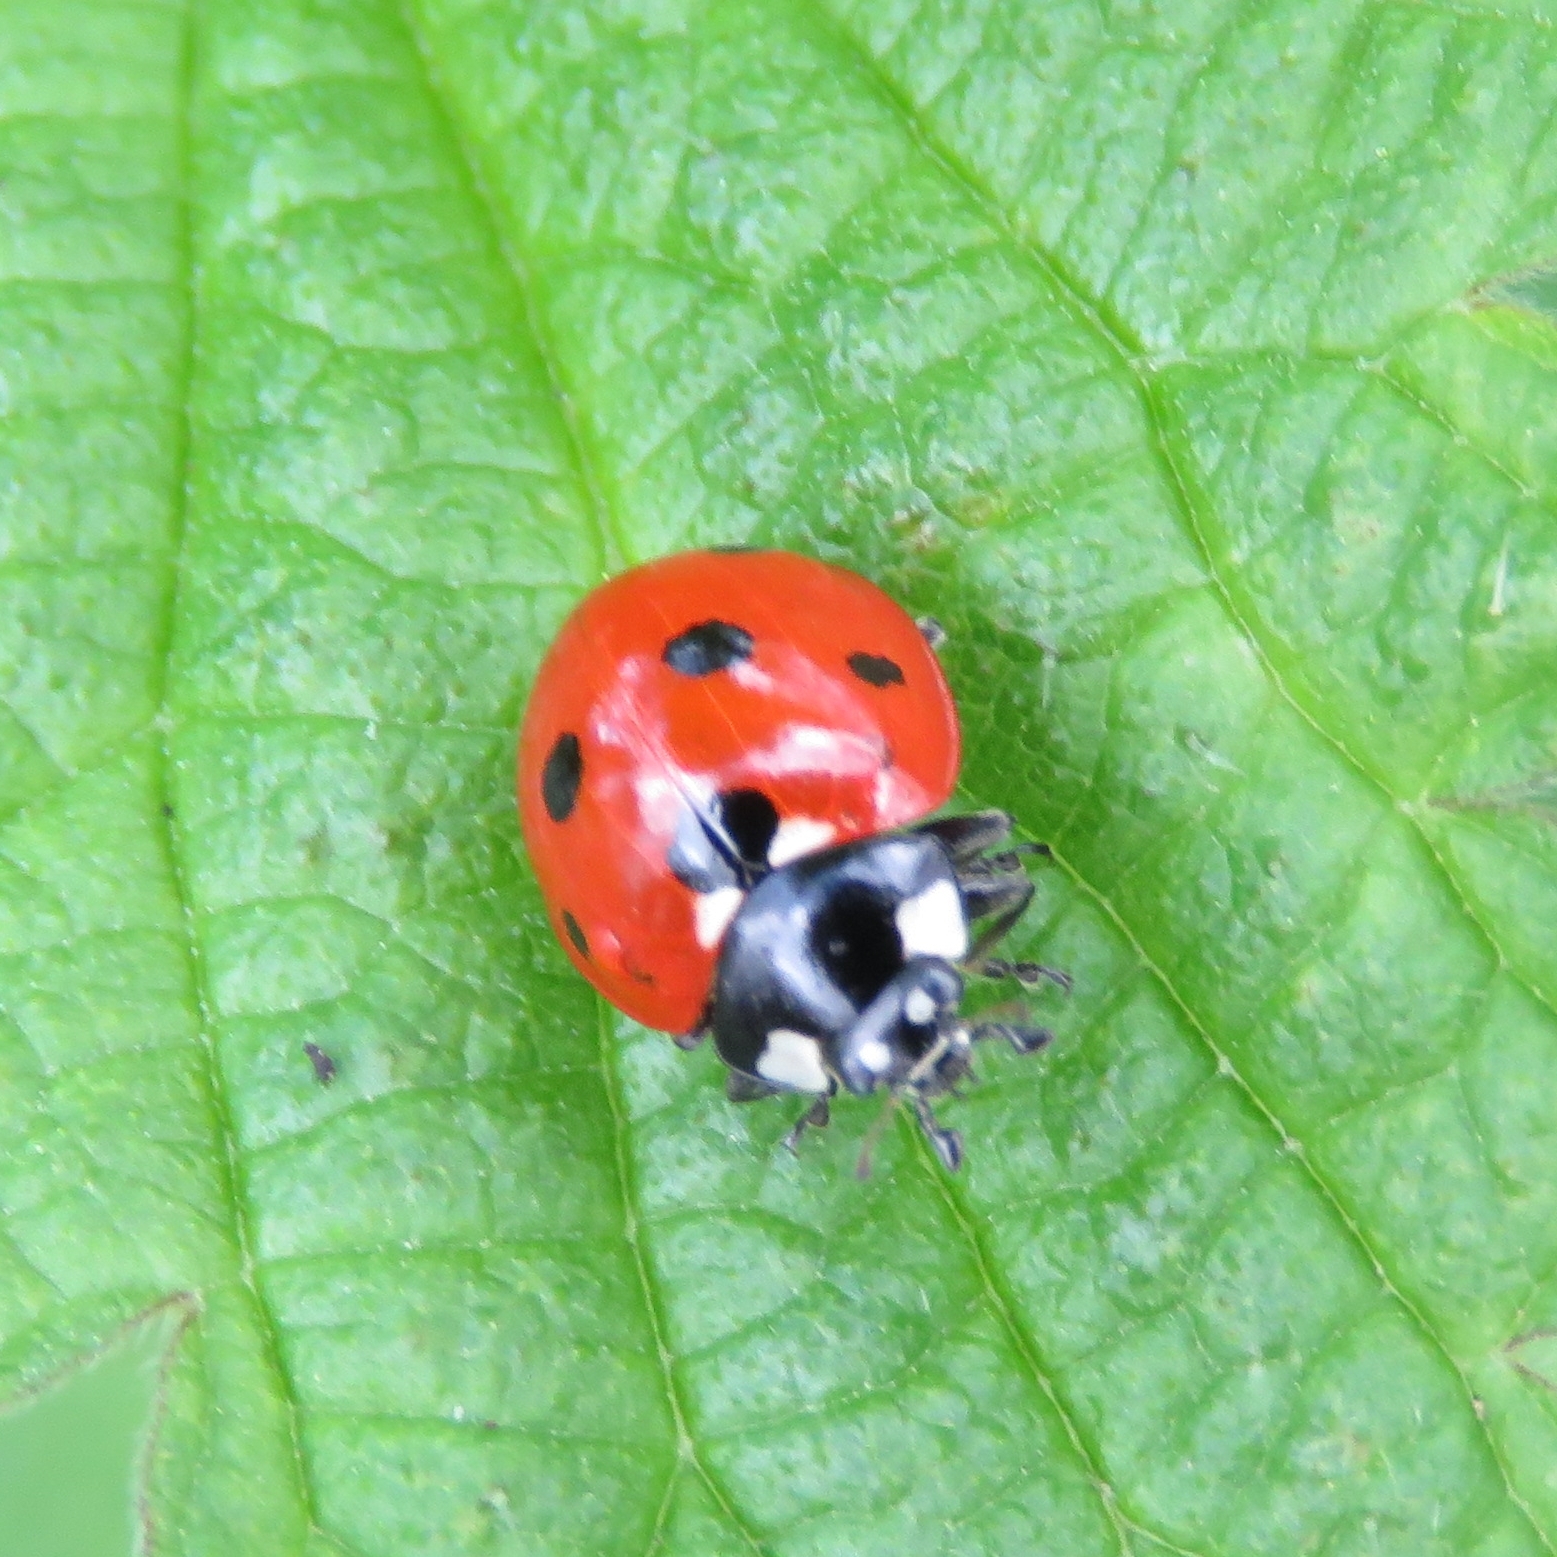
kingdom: Animalia
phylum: Arthropoda
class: Insecta
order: Coleoptera
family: Coccinellidae
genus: Coccinella
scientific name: Coccinella septempunctata
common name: Sevenspotted lady beetle
